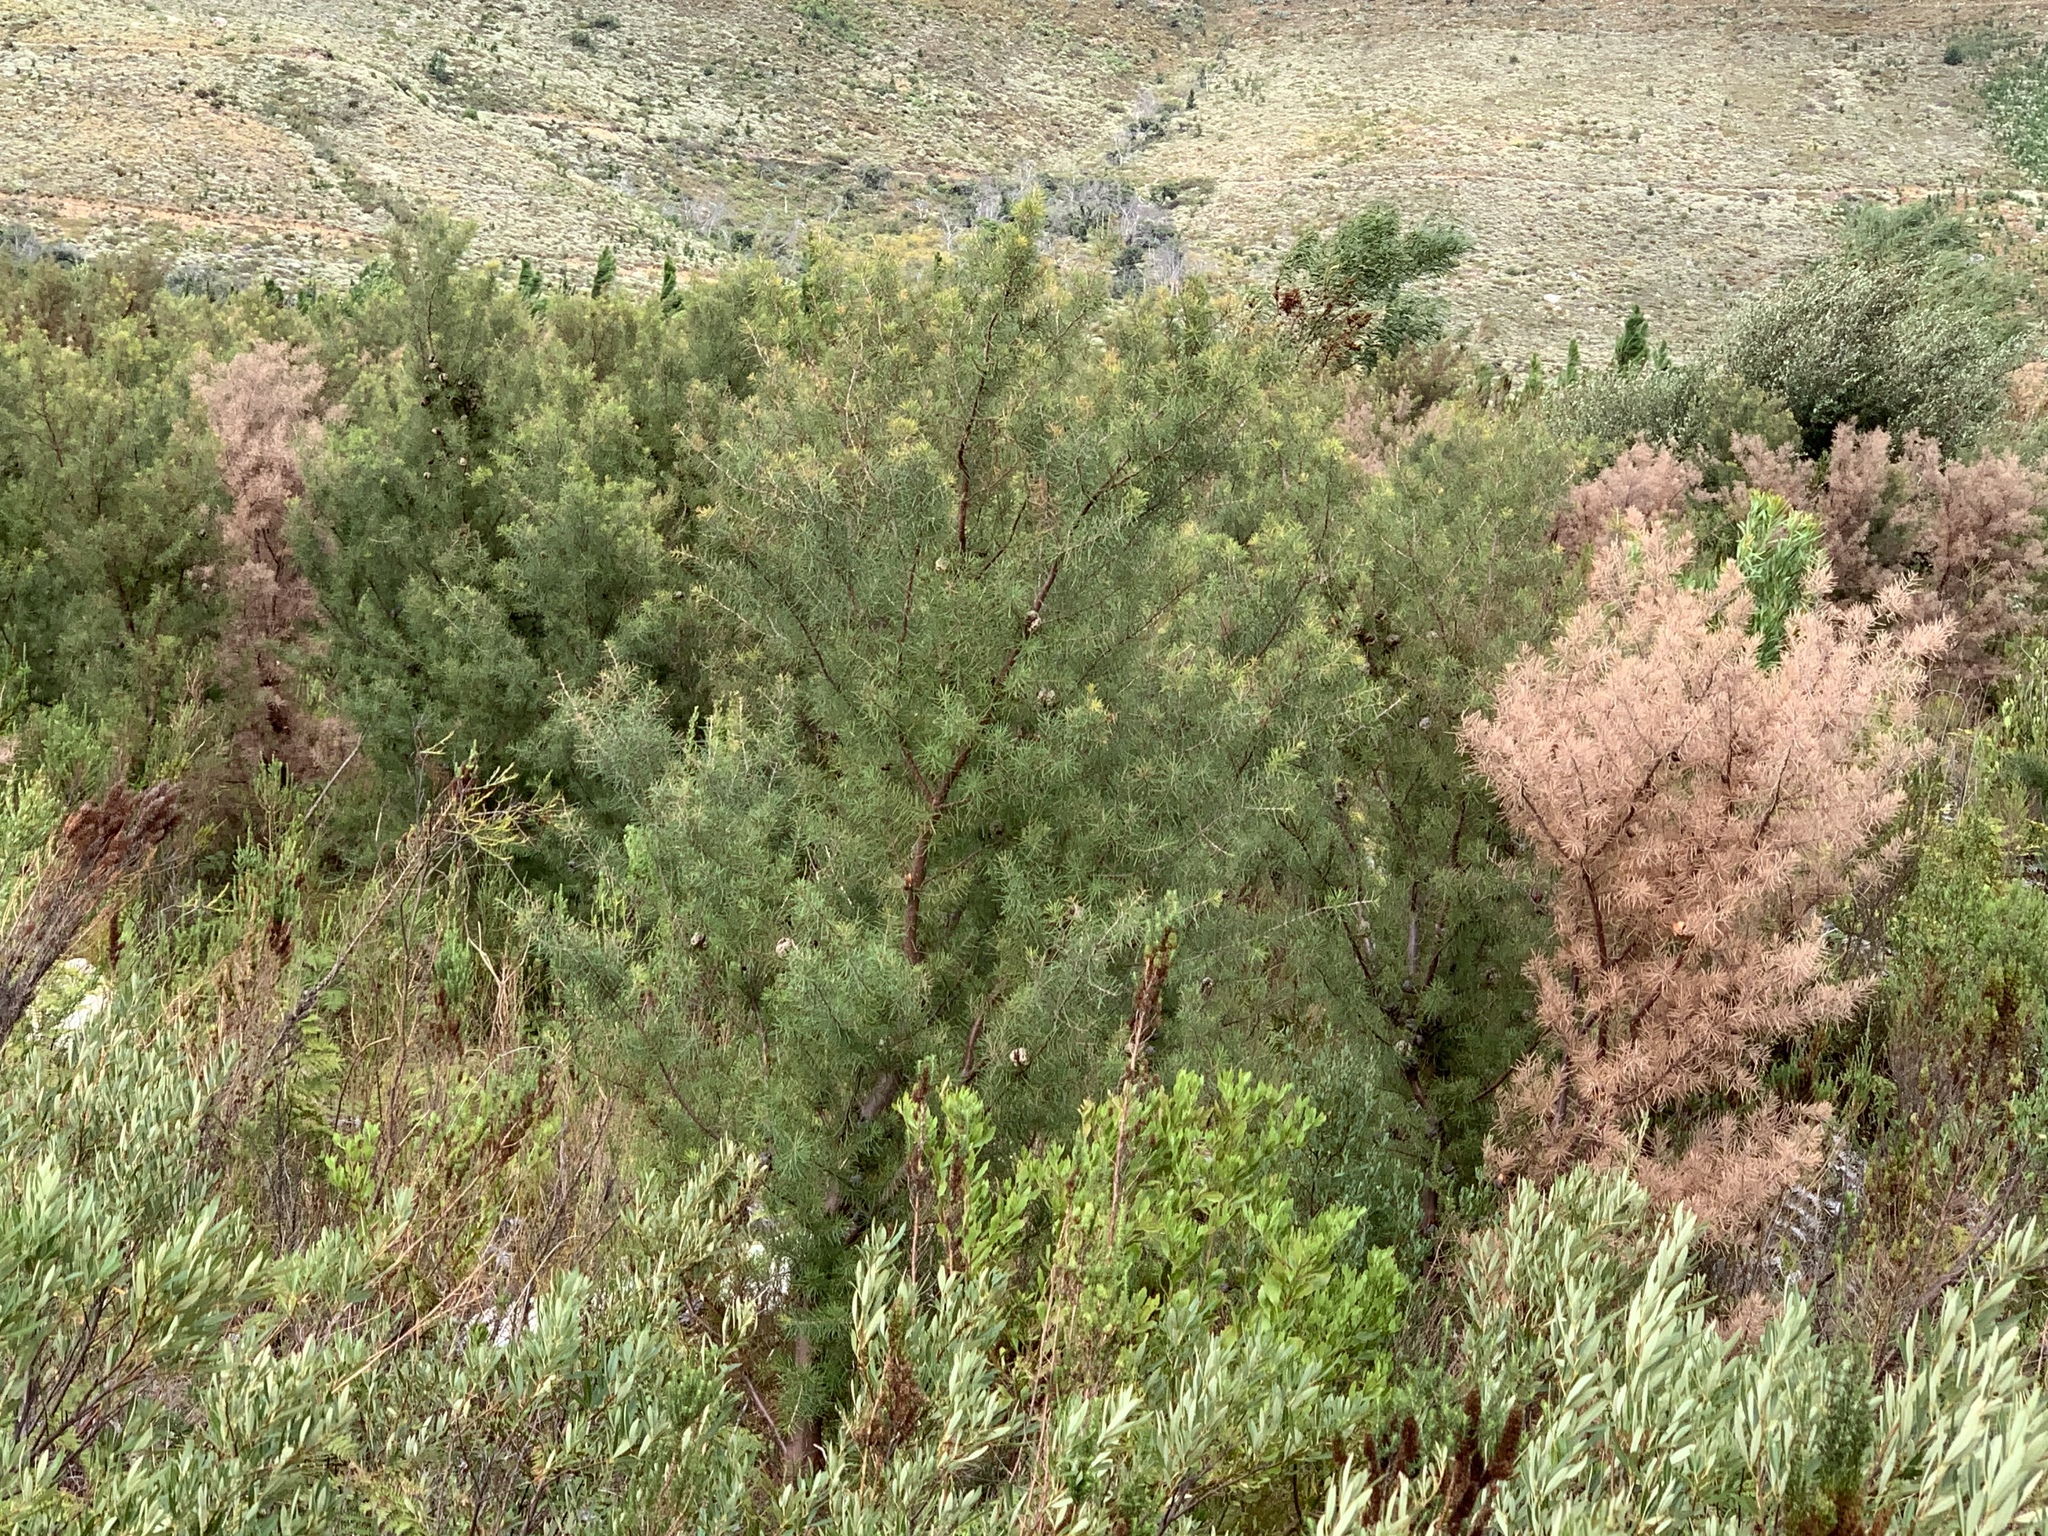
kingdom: Plantae
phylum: Tracheophyta
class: Magnoliopsida
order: Proteales
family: Proteaceae
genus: Hakea
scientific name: Hakea sericea
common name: Needle bush
